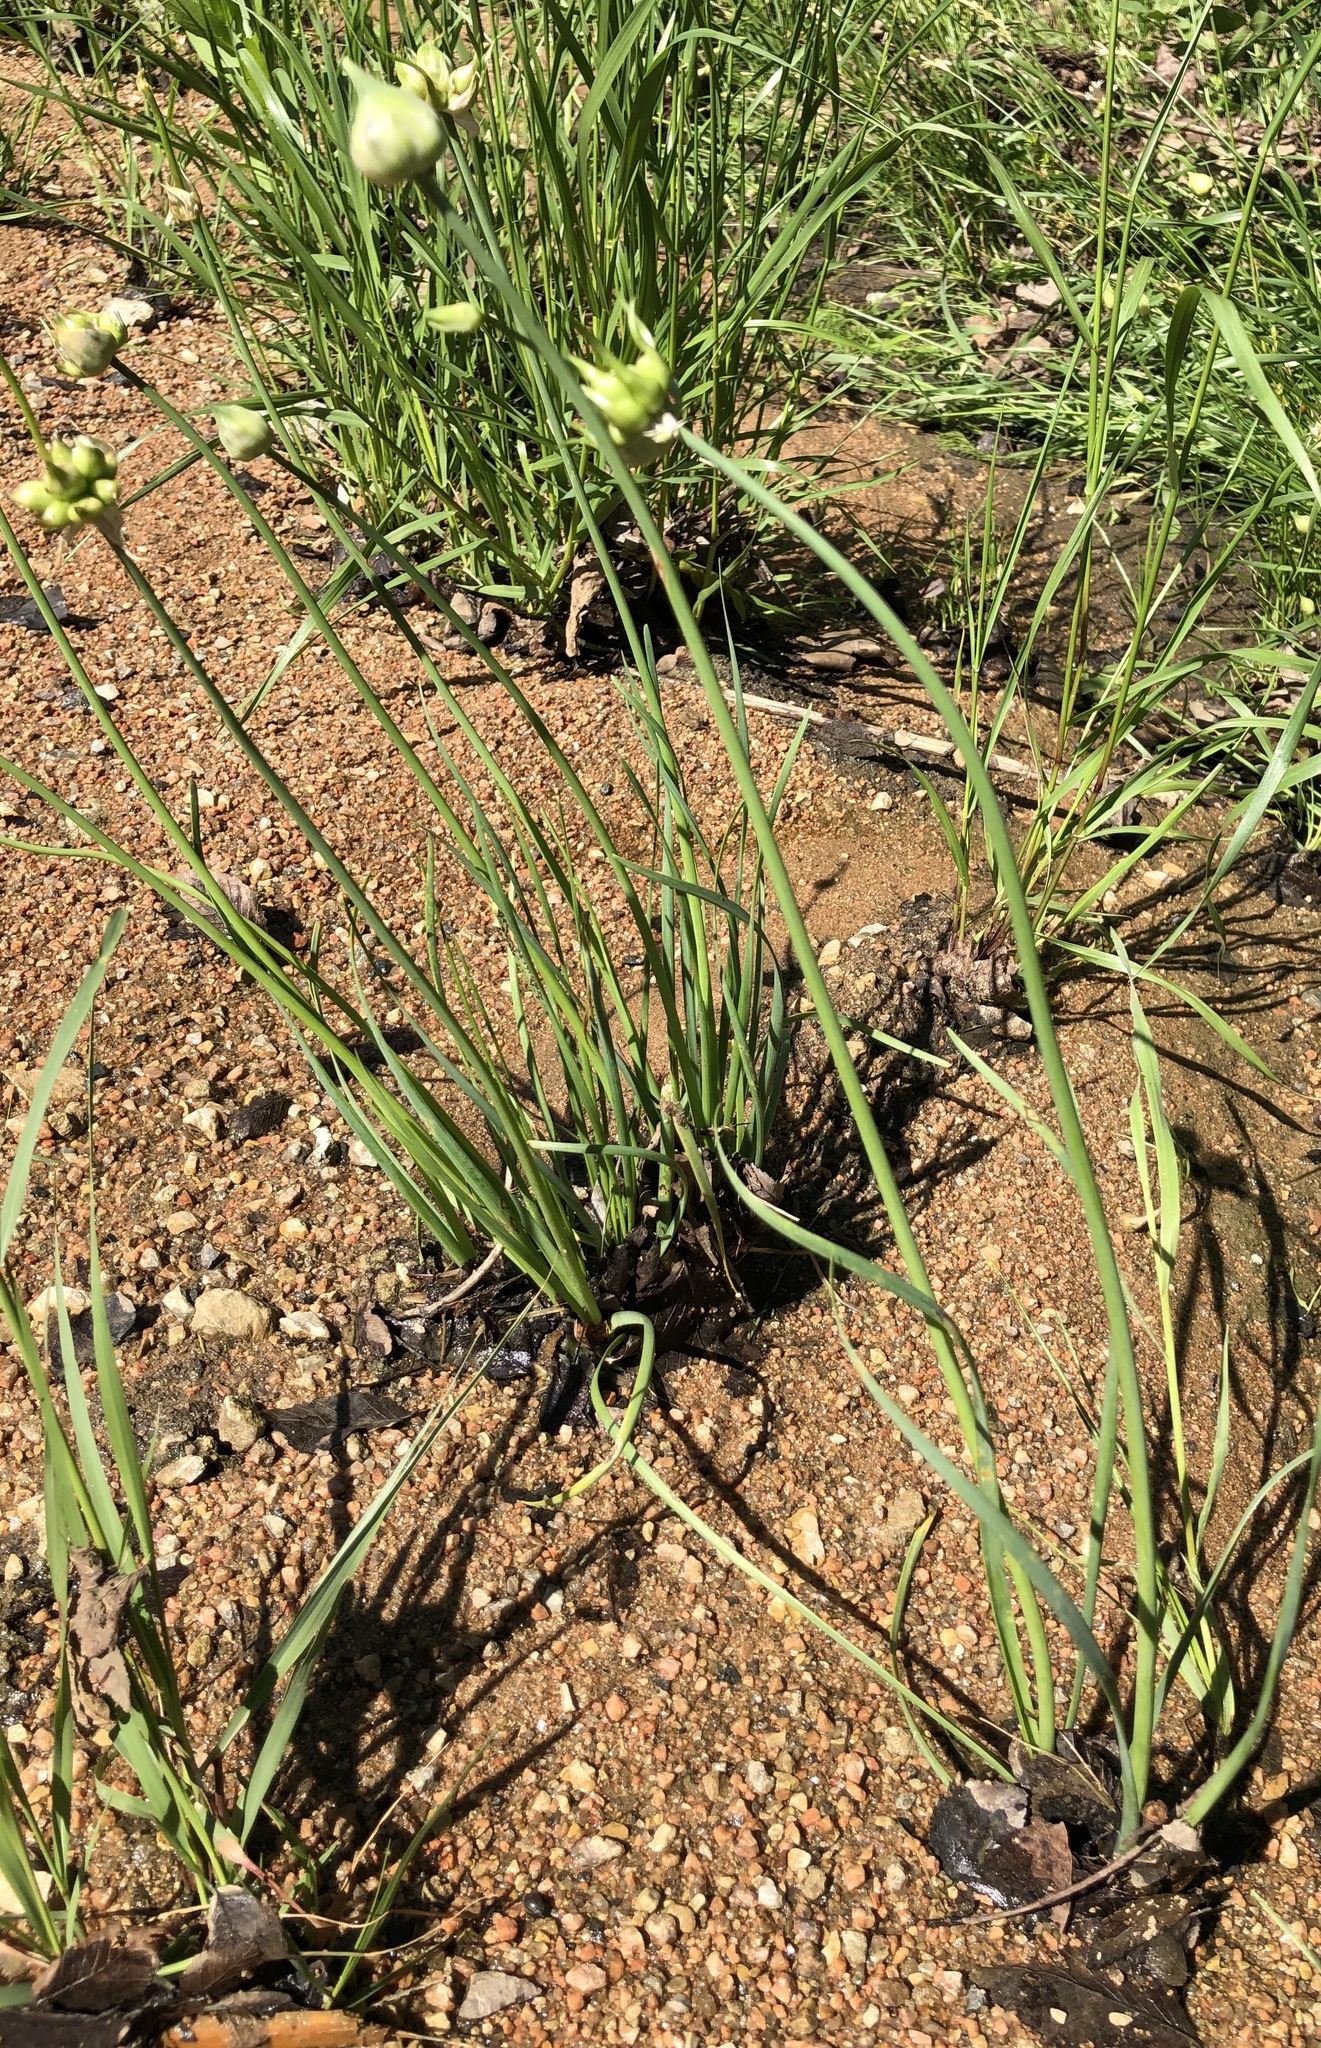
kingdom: Plantae
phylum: Tracheophyta
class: Liliopsida
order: Asparagales
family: Amaryllidaceae
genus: Allium
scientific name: Allium canadense
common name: Meadow garlic
